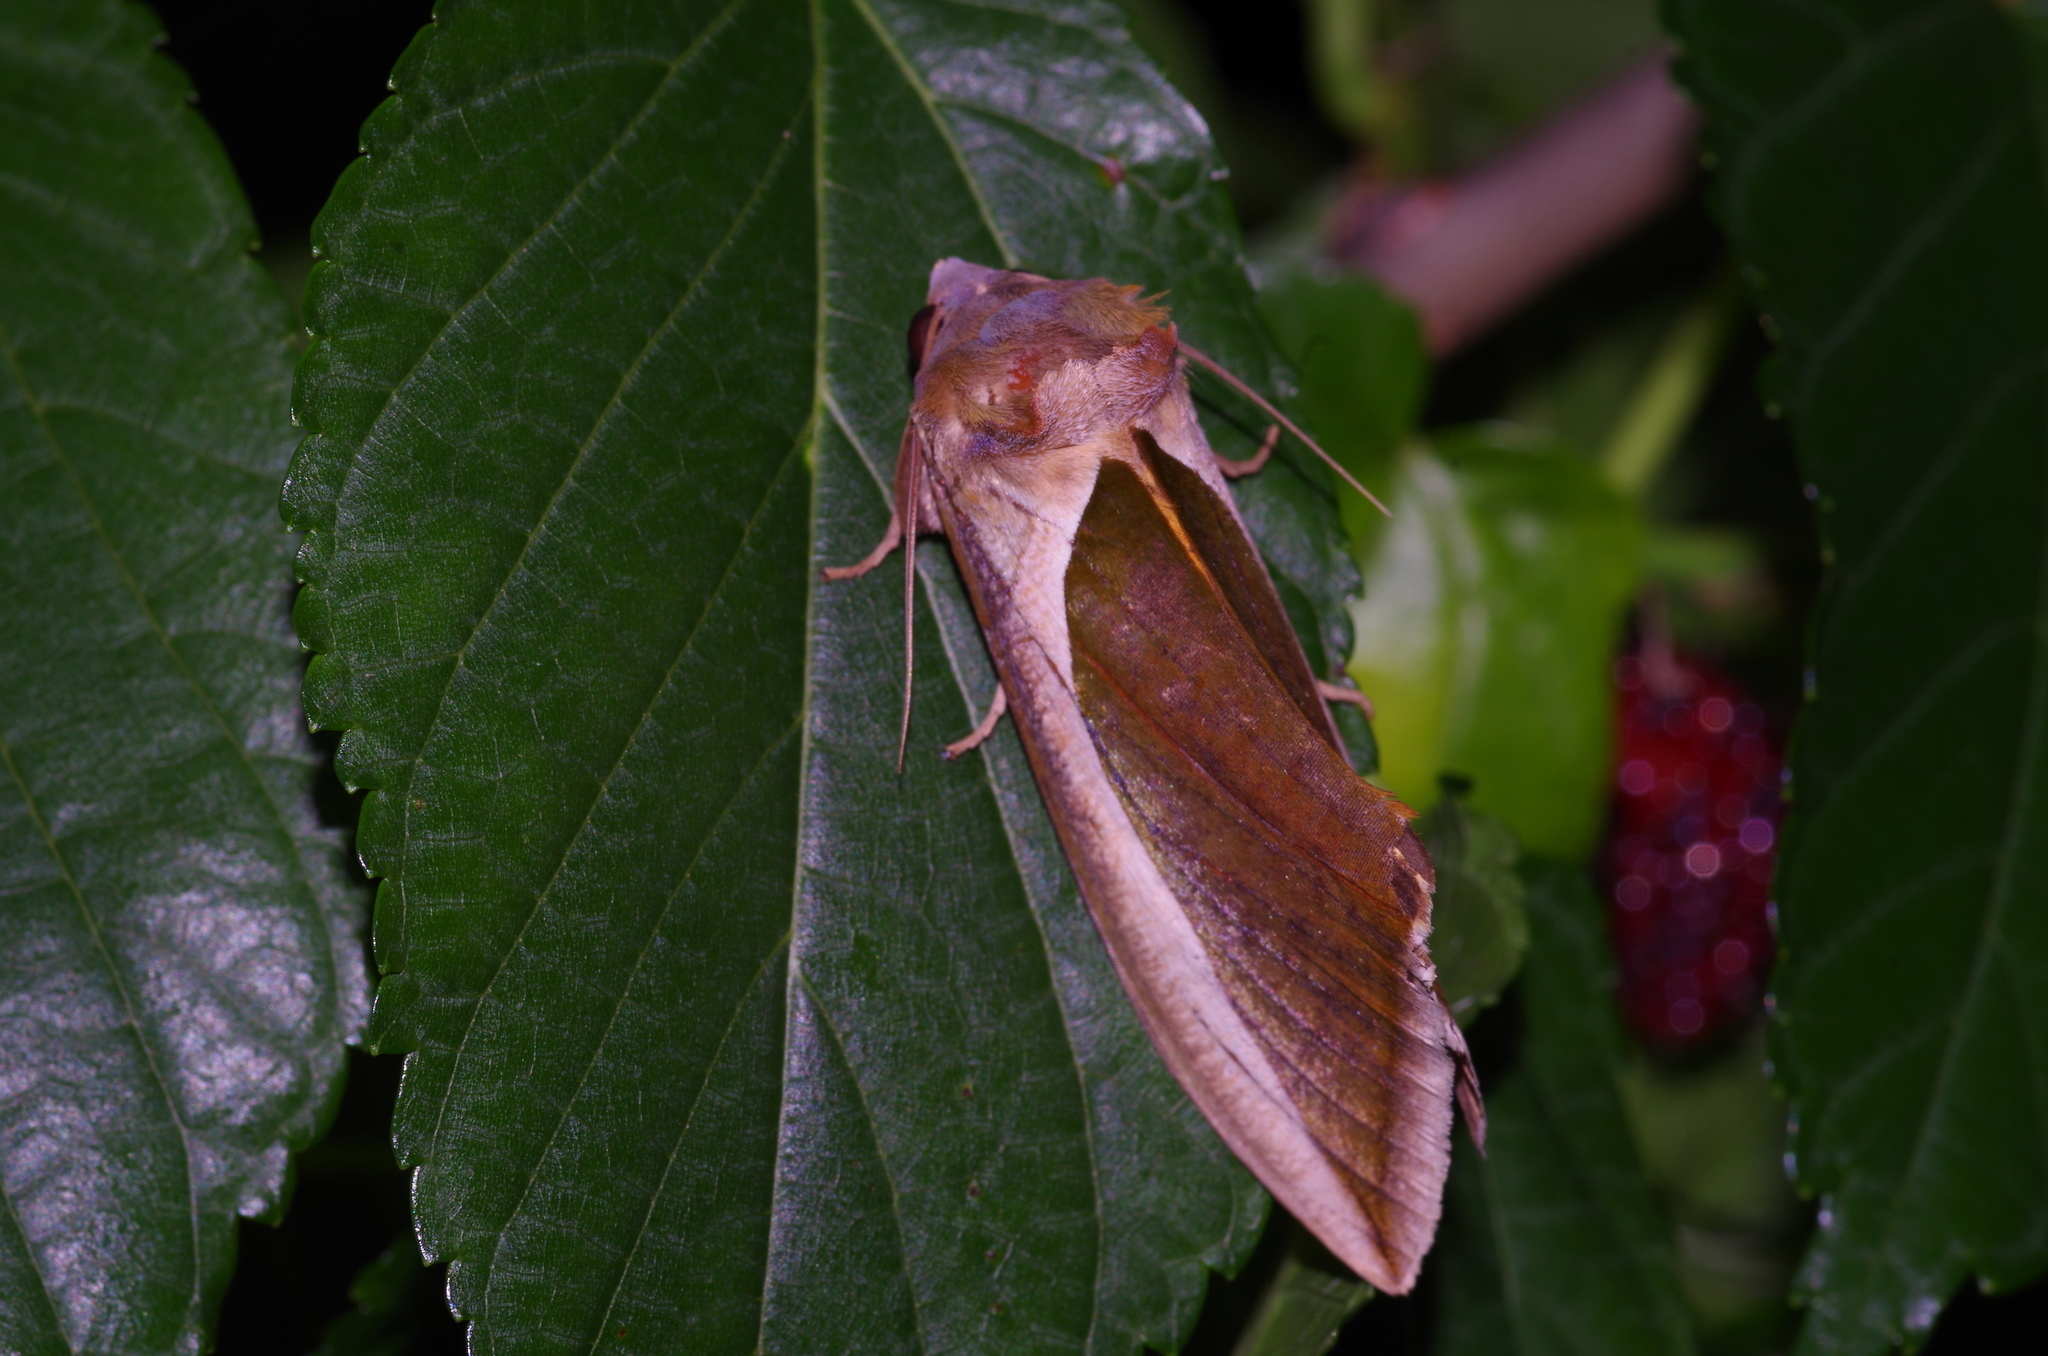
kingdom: Animalia
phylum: Arthropoda
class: Insecta
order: Lepidoptera
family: Erebidae
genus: Eudocima
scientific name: Eudocima salaminia
